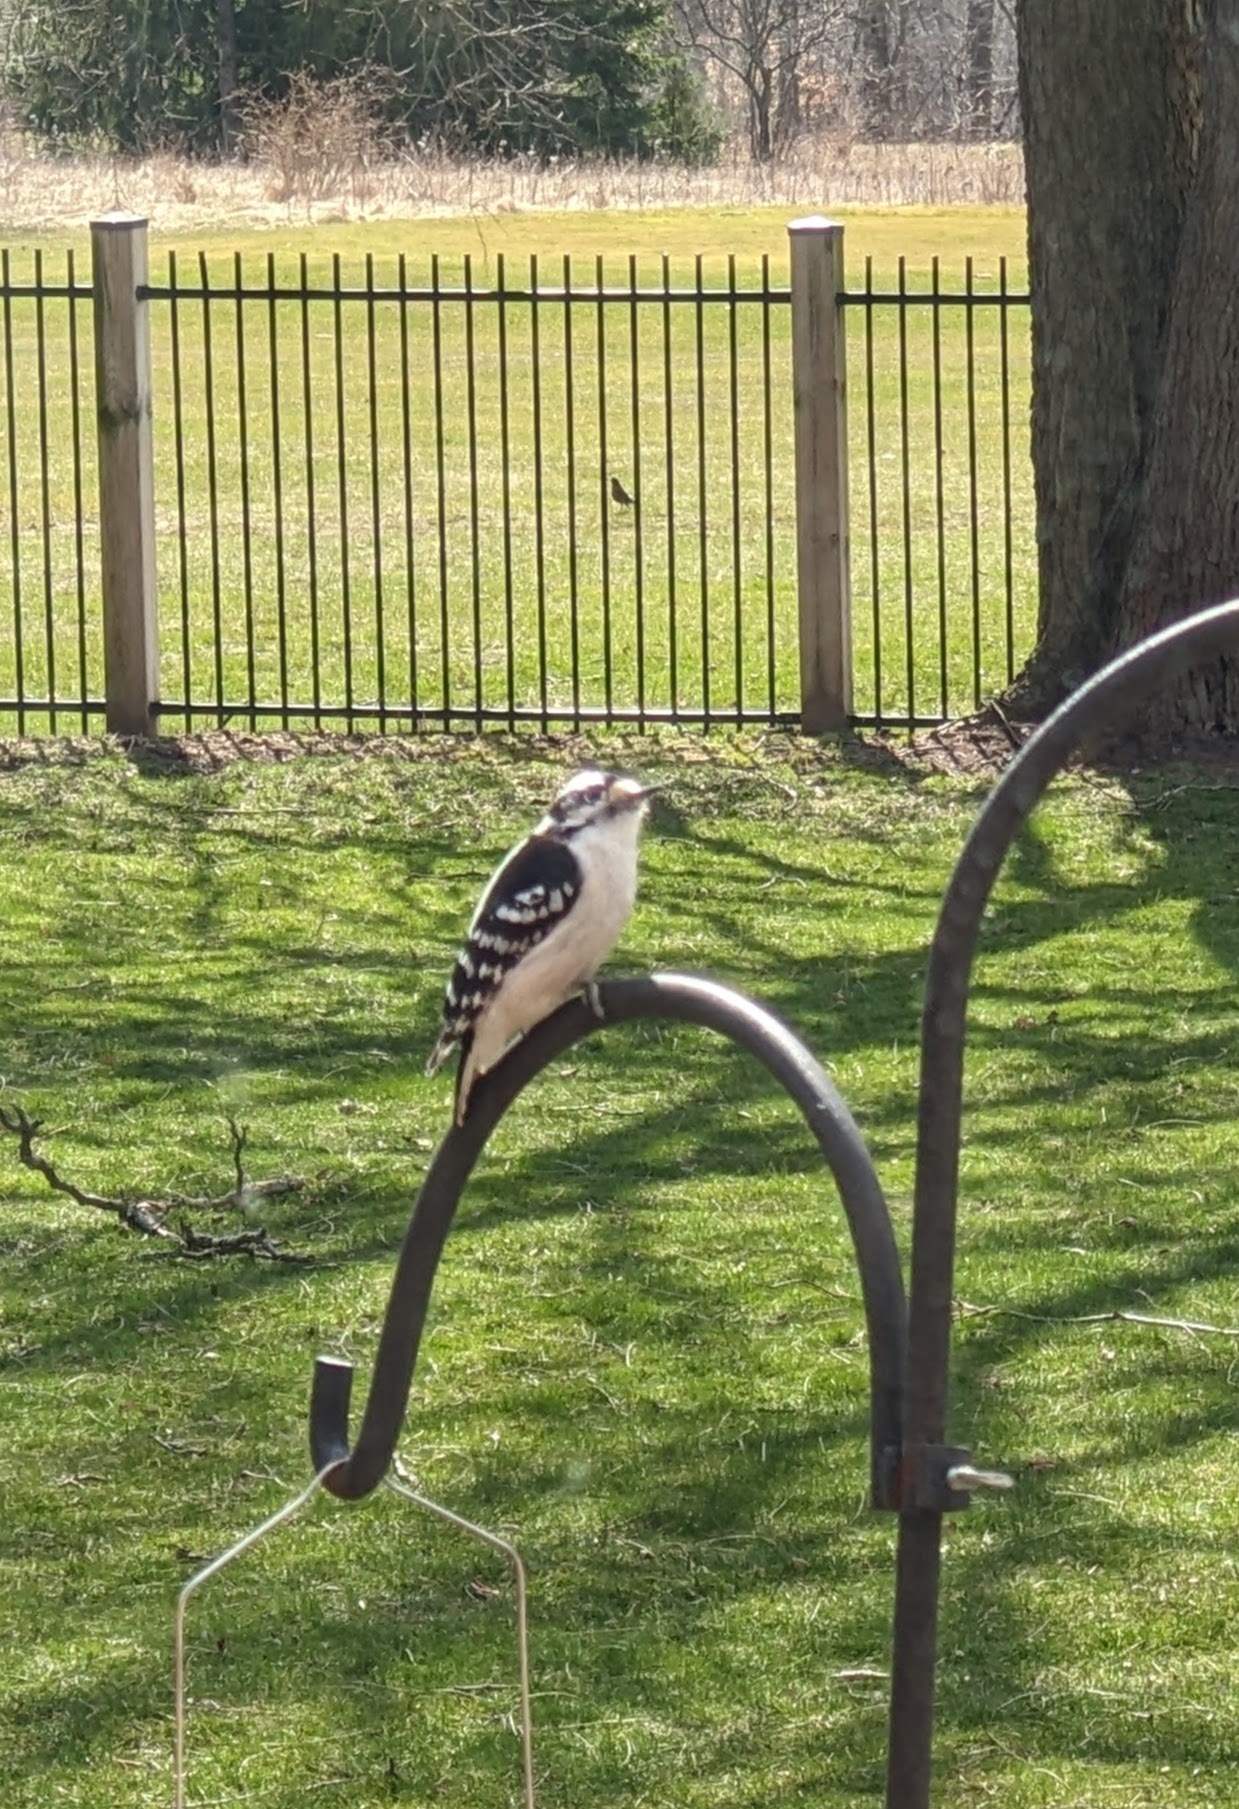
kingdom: Animalia
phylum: Chordata
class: Aves
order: Piciformes
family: Picidae
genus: Dryobates
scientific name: Dryobates pubescens
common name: Downy woodpecker
